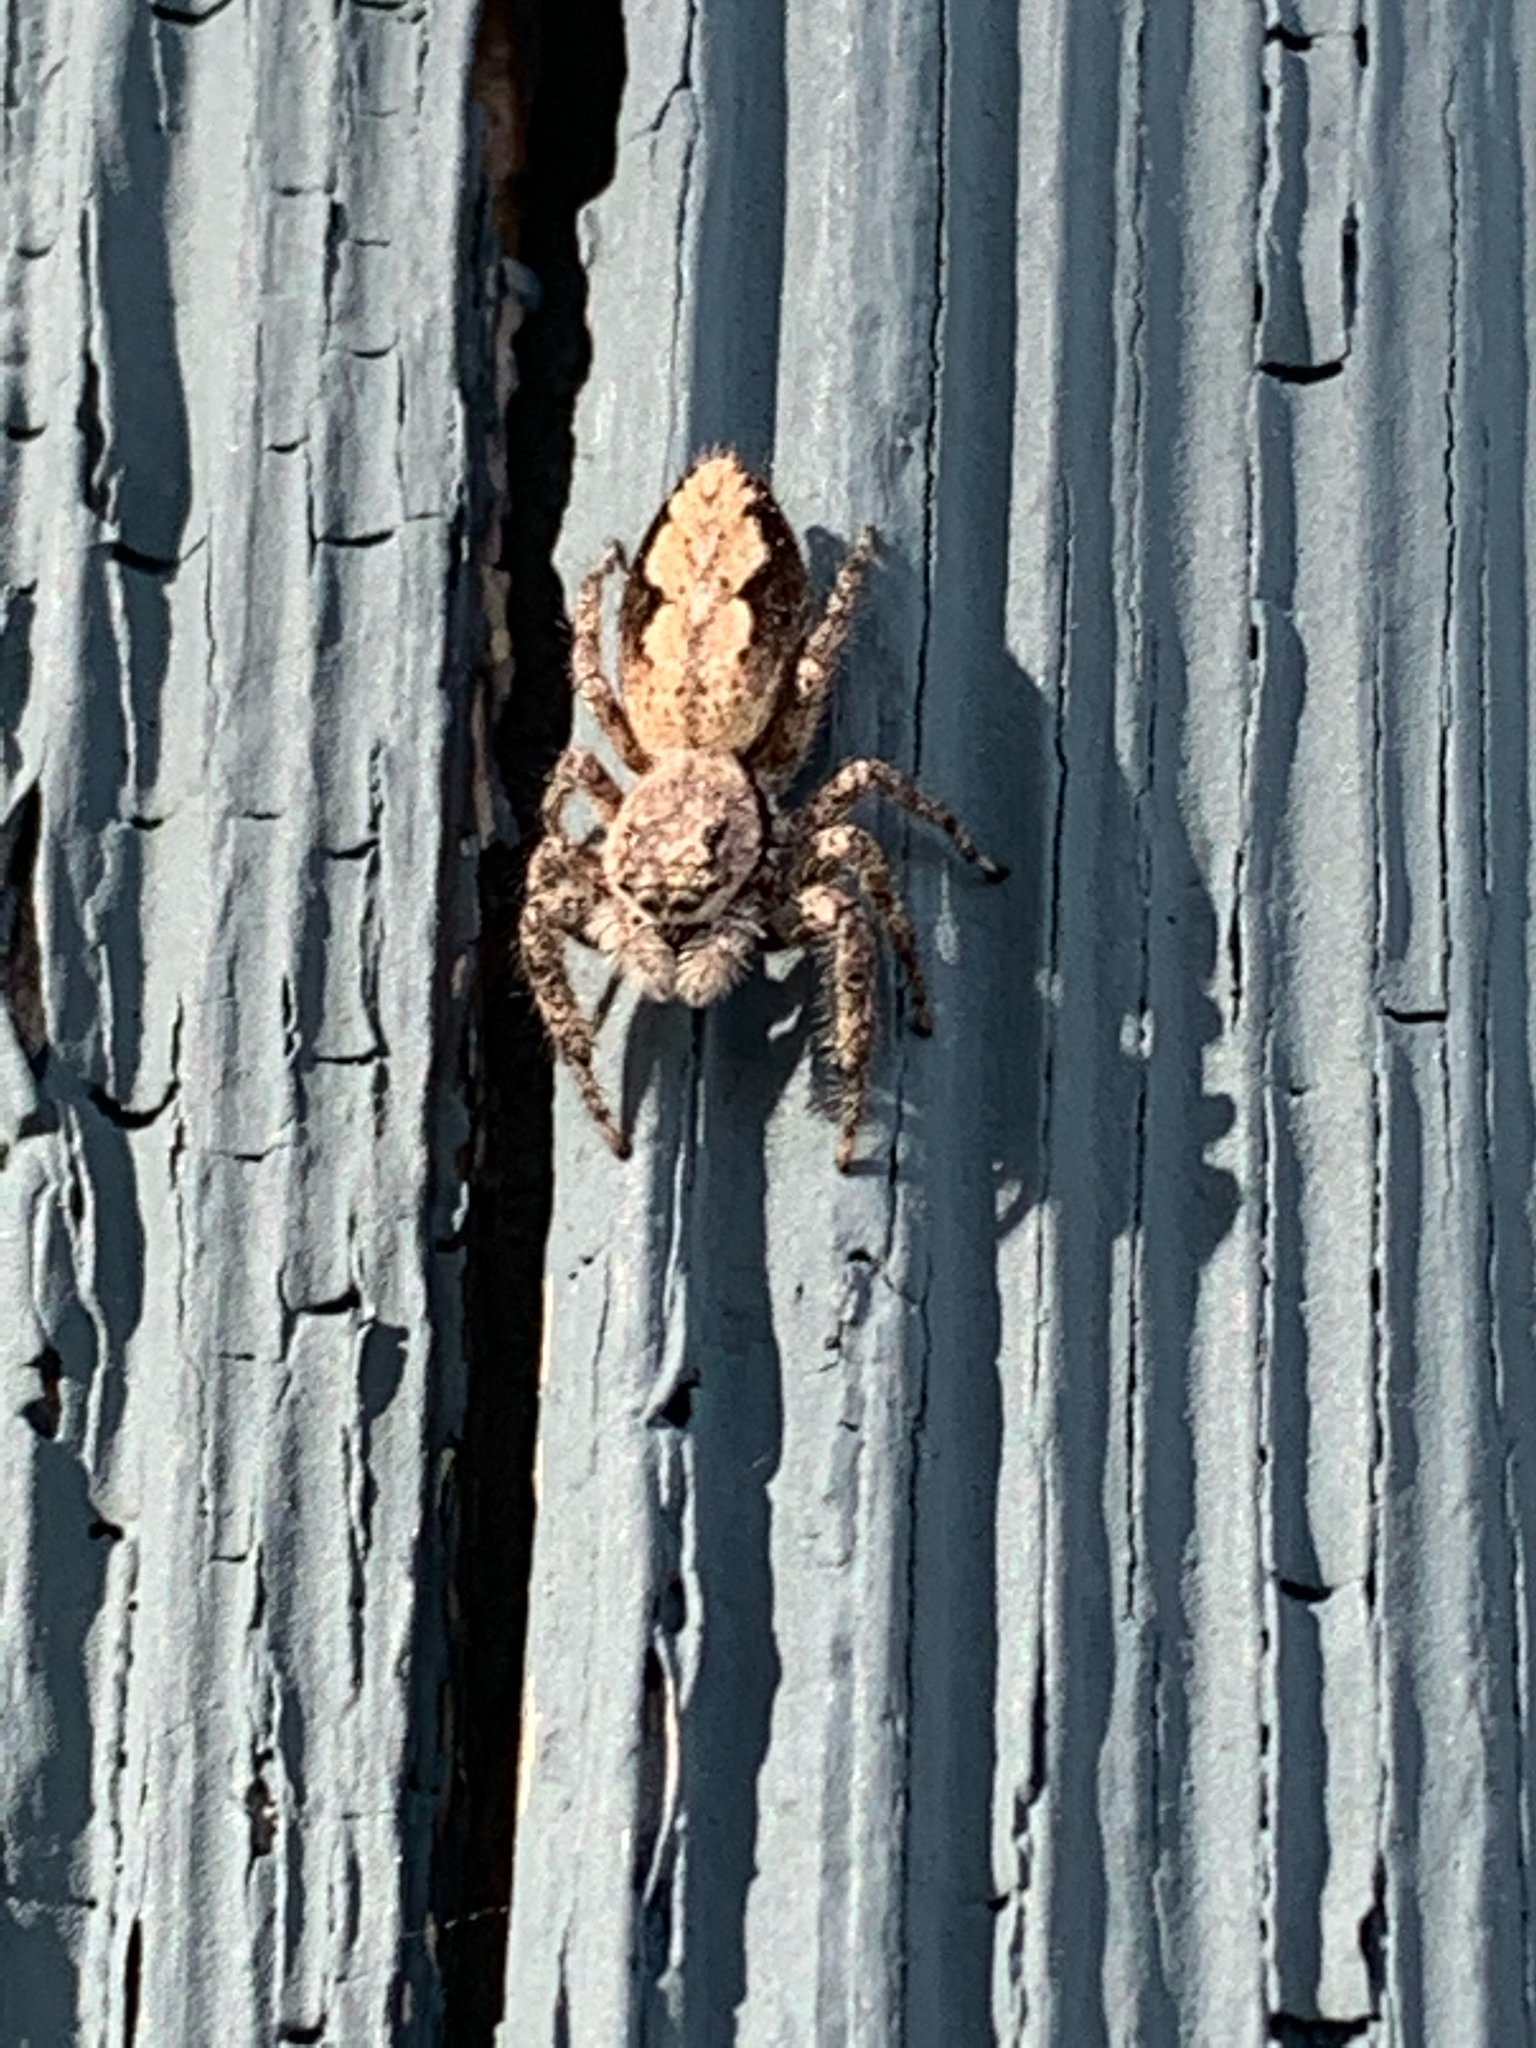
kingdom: Animalia
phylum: Arthropoda
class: Arachnida
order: Araneae
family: Salticidae
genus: Platycryptus
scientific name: Platycryptus undatus
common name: Tan jumping spider
